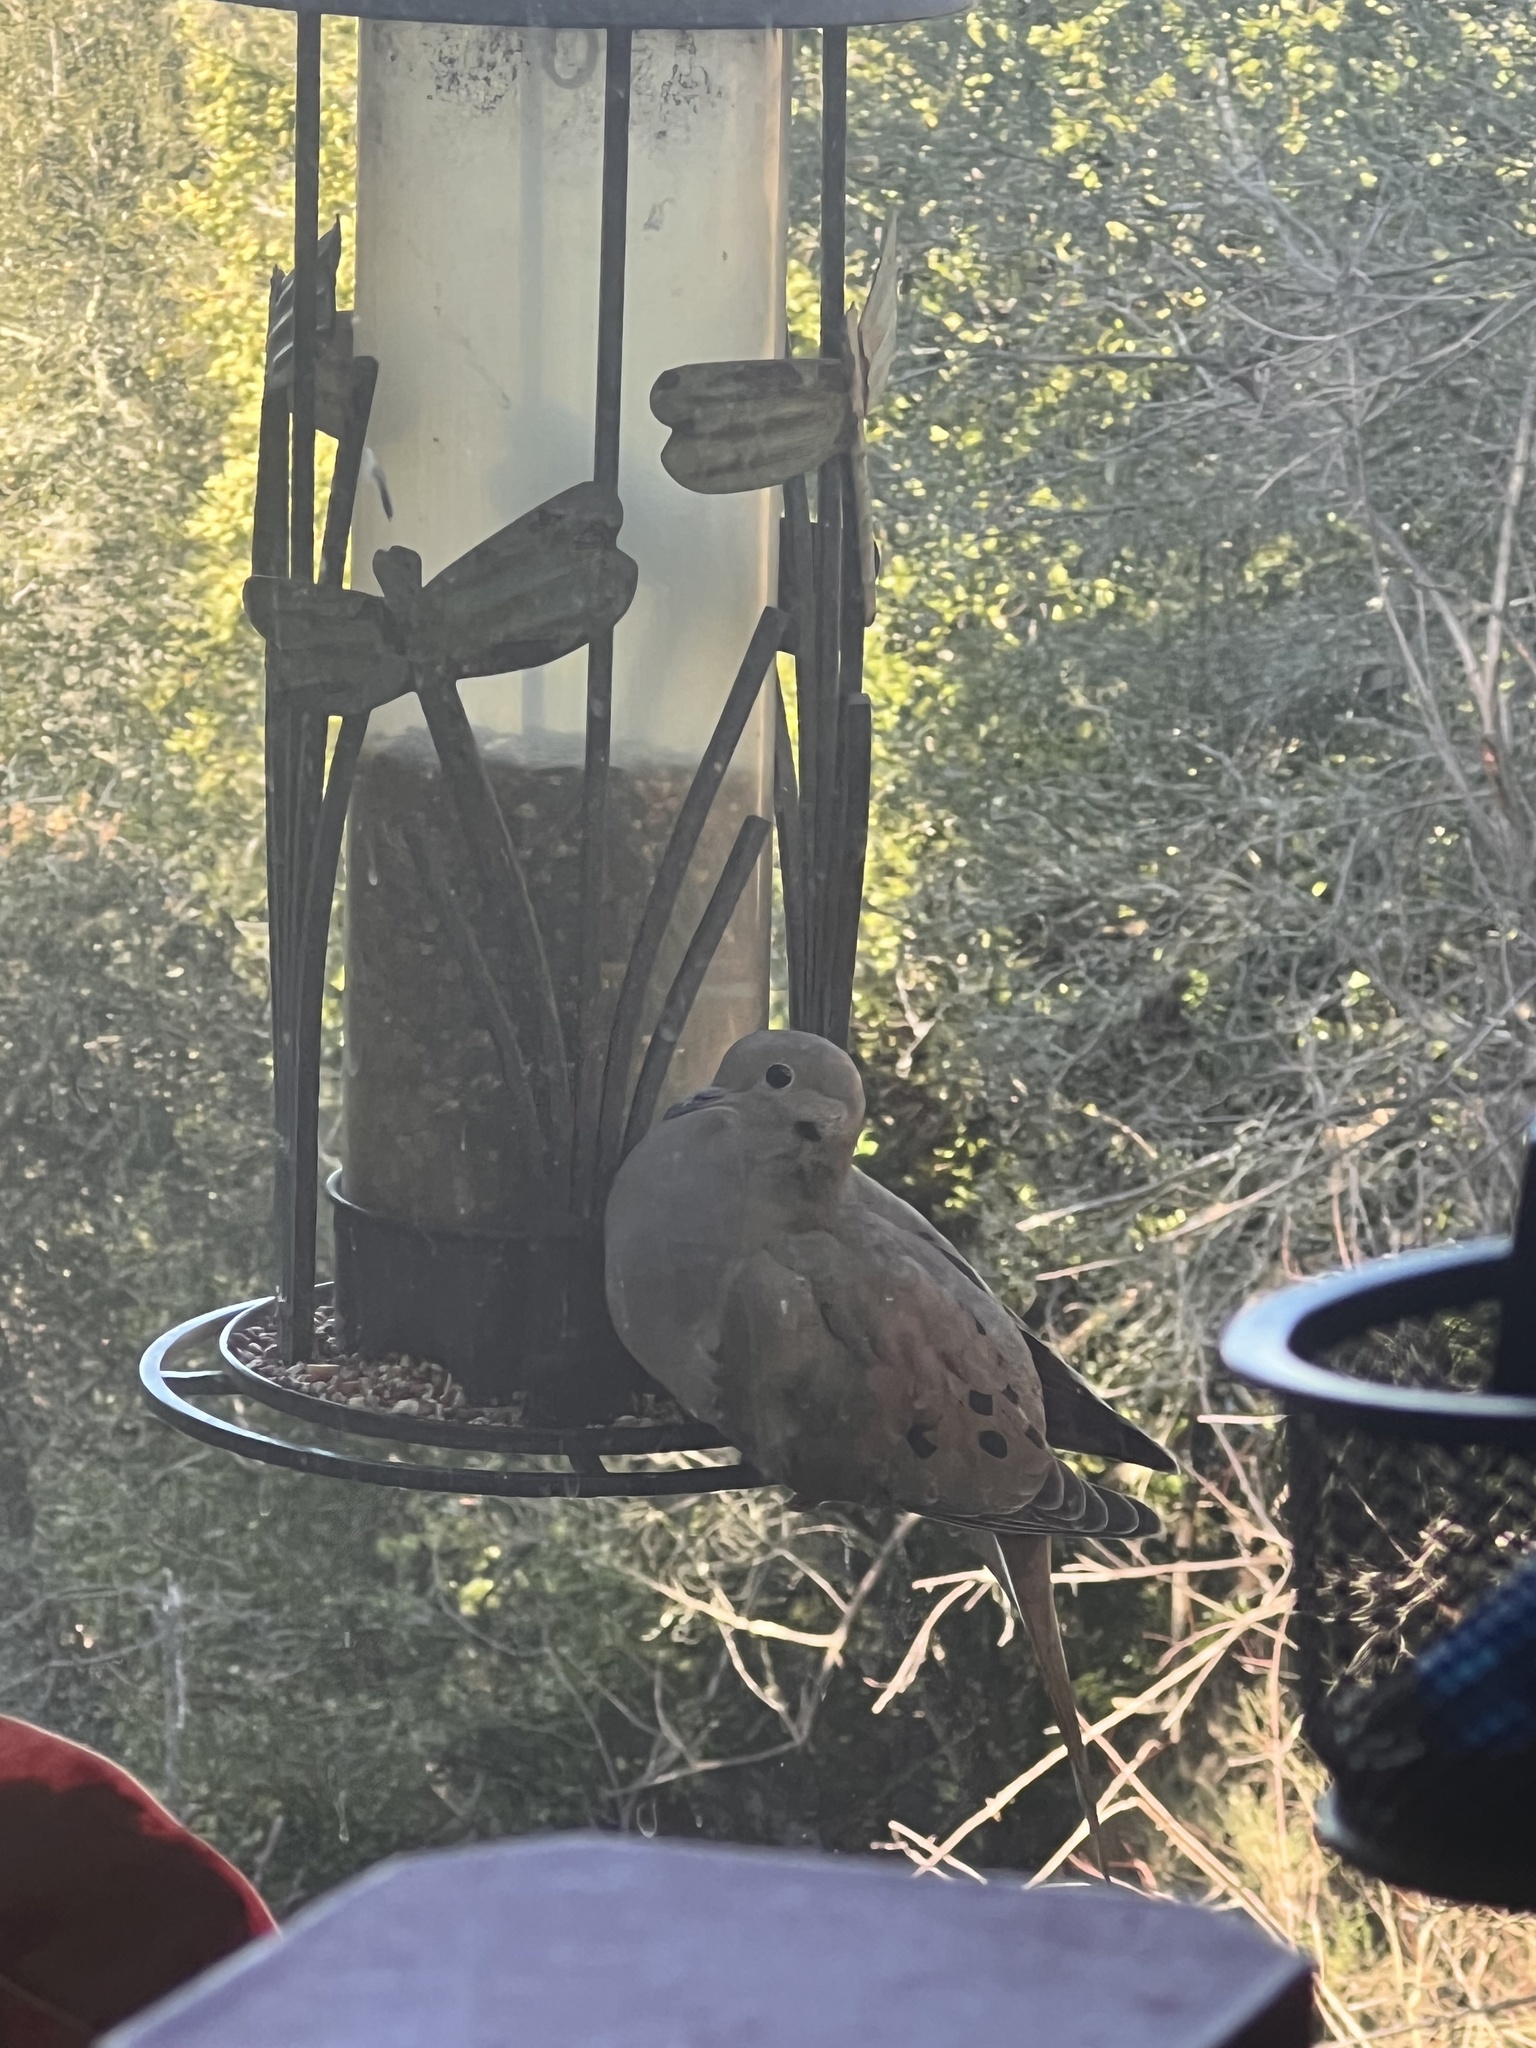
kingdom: Animalia
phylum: Chordata
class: Aves
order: Columbiformes
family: Columbidae
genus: Zenaida
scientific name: Zenaida macroura
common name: Mourning dove
